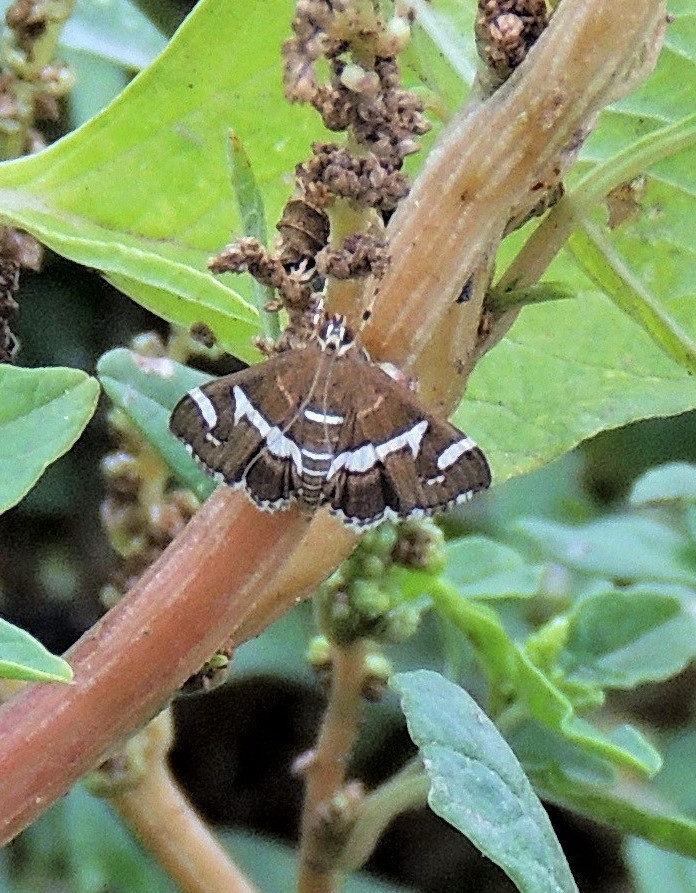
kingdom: Animalia
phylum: Arthropoda
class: Insecta
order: Lepidoptera
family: Crambidae
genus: Spoladea
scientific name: Spoladea recurvalis
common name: Beet webworm moth
